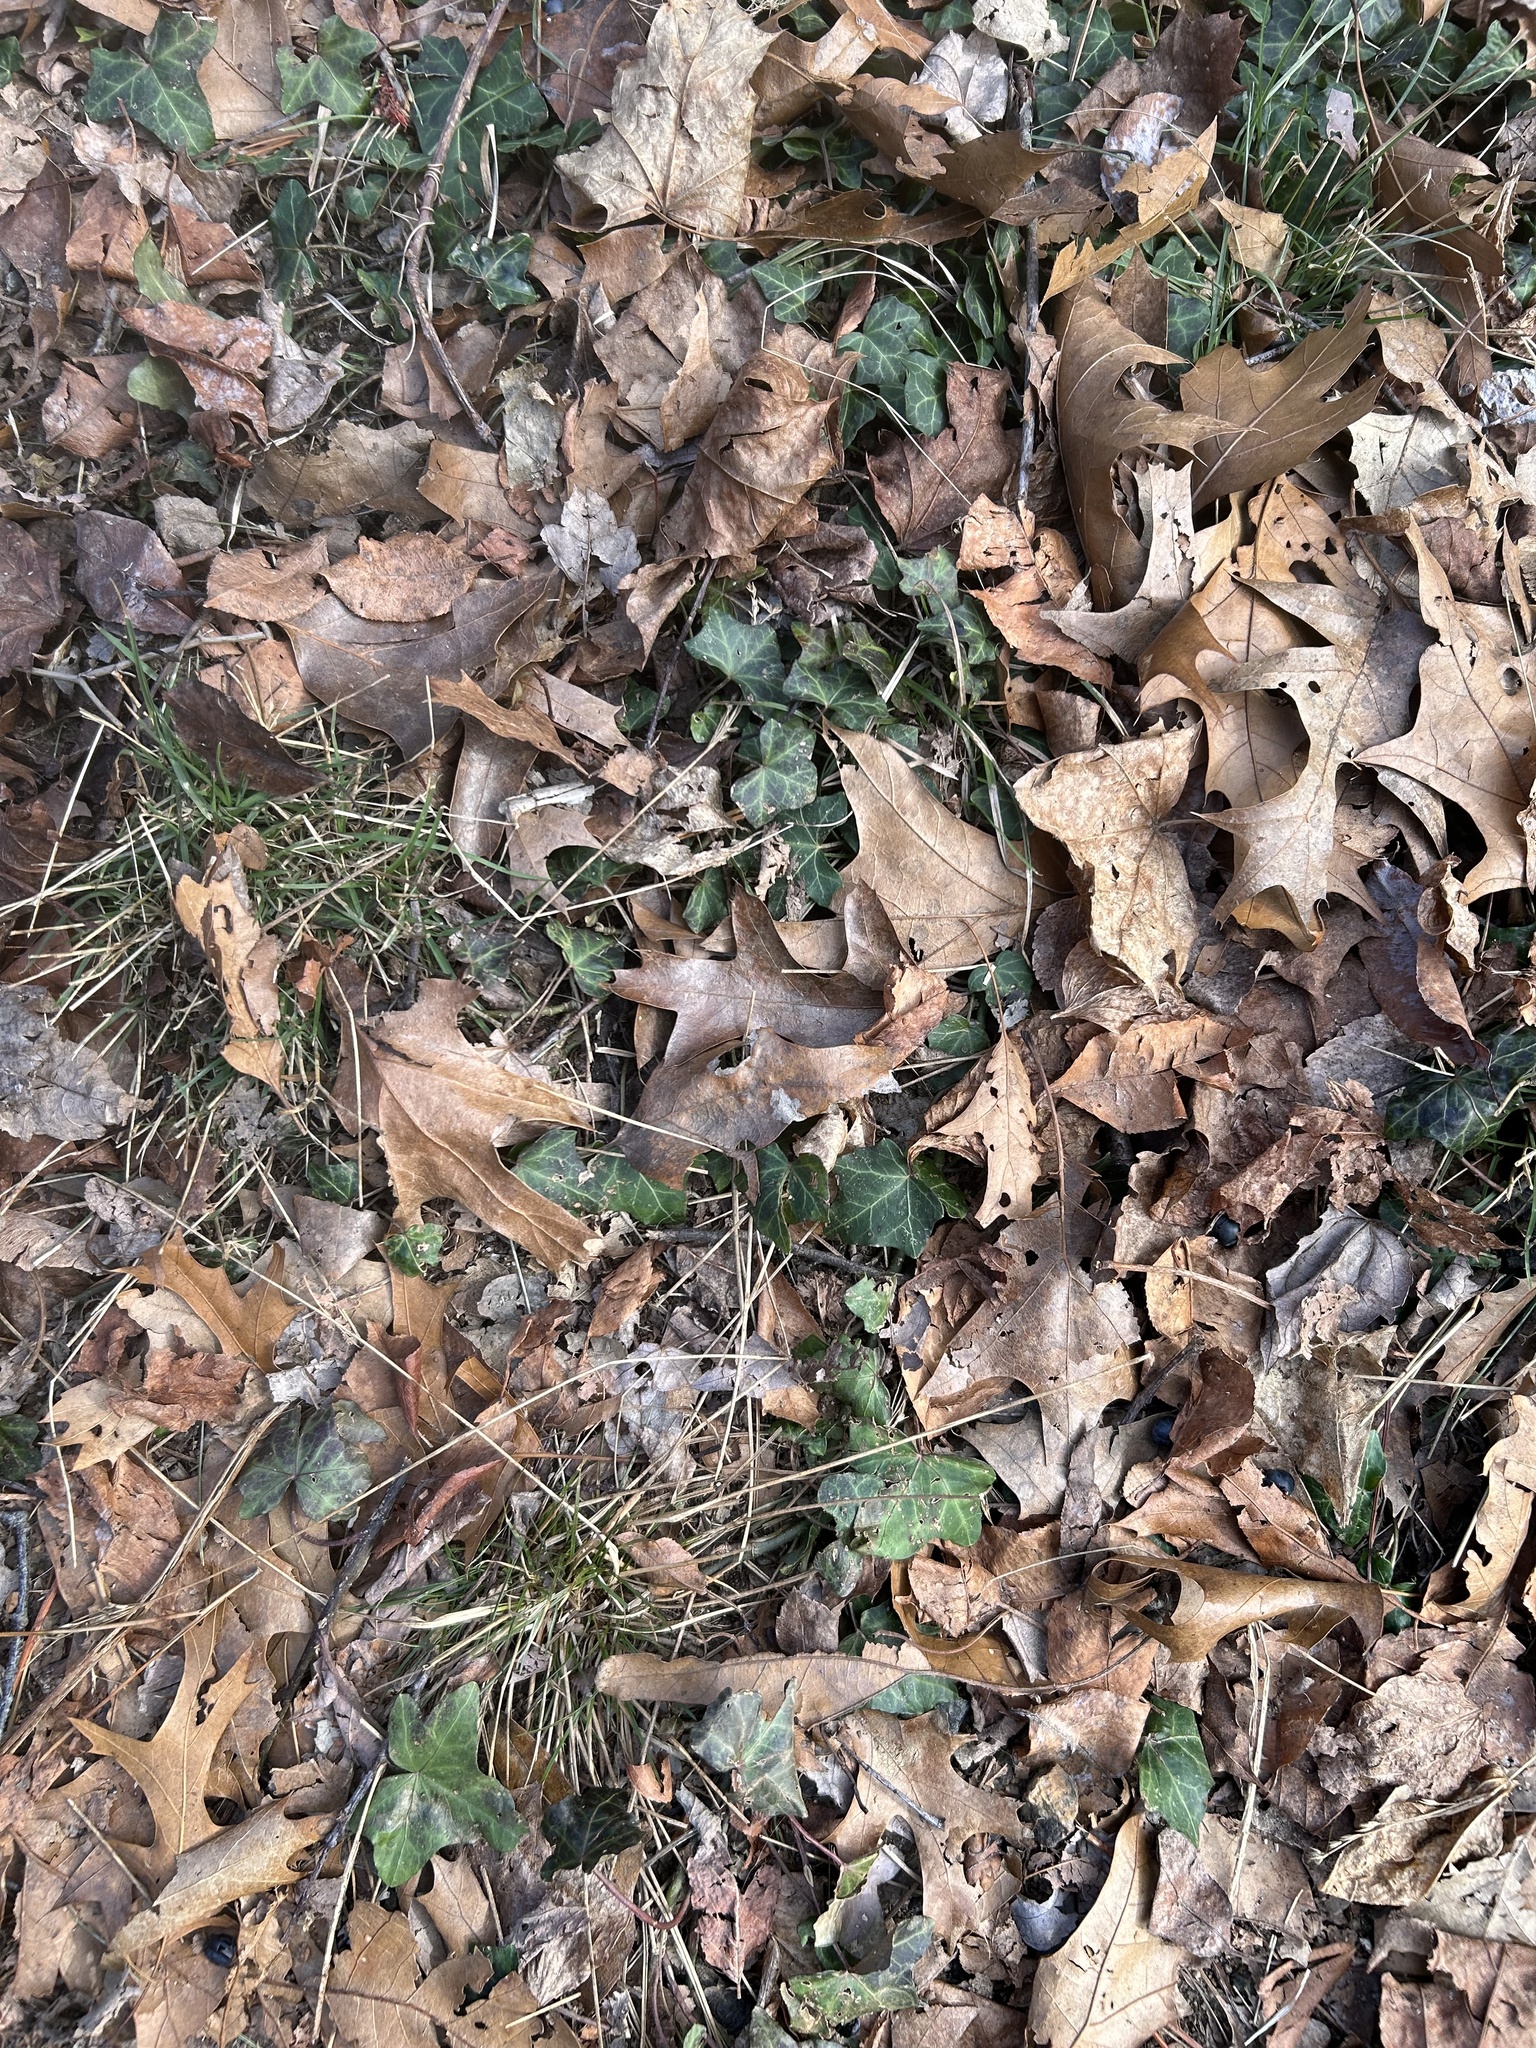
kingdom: Plantae
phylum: Tracheophyta
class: Magnoliopsida
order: Apiales
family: Araliaceae
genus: Hedera
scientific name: Hedera helix
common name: Ivy
